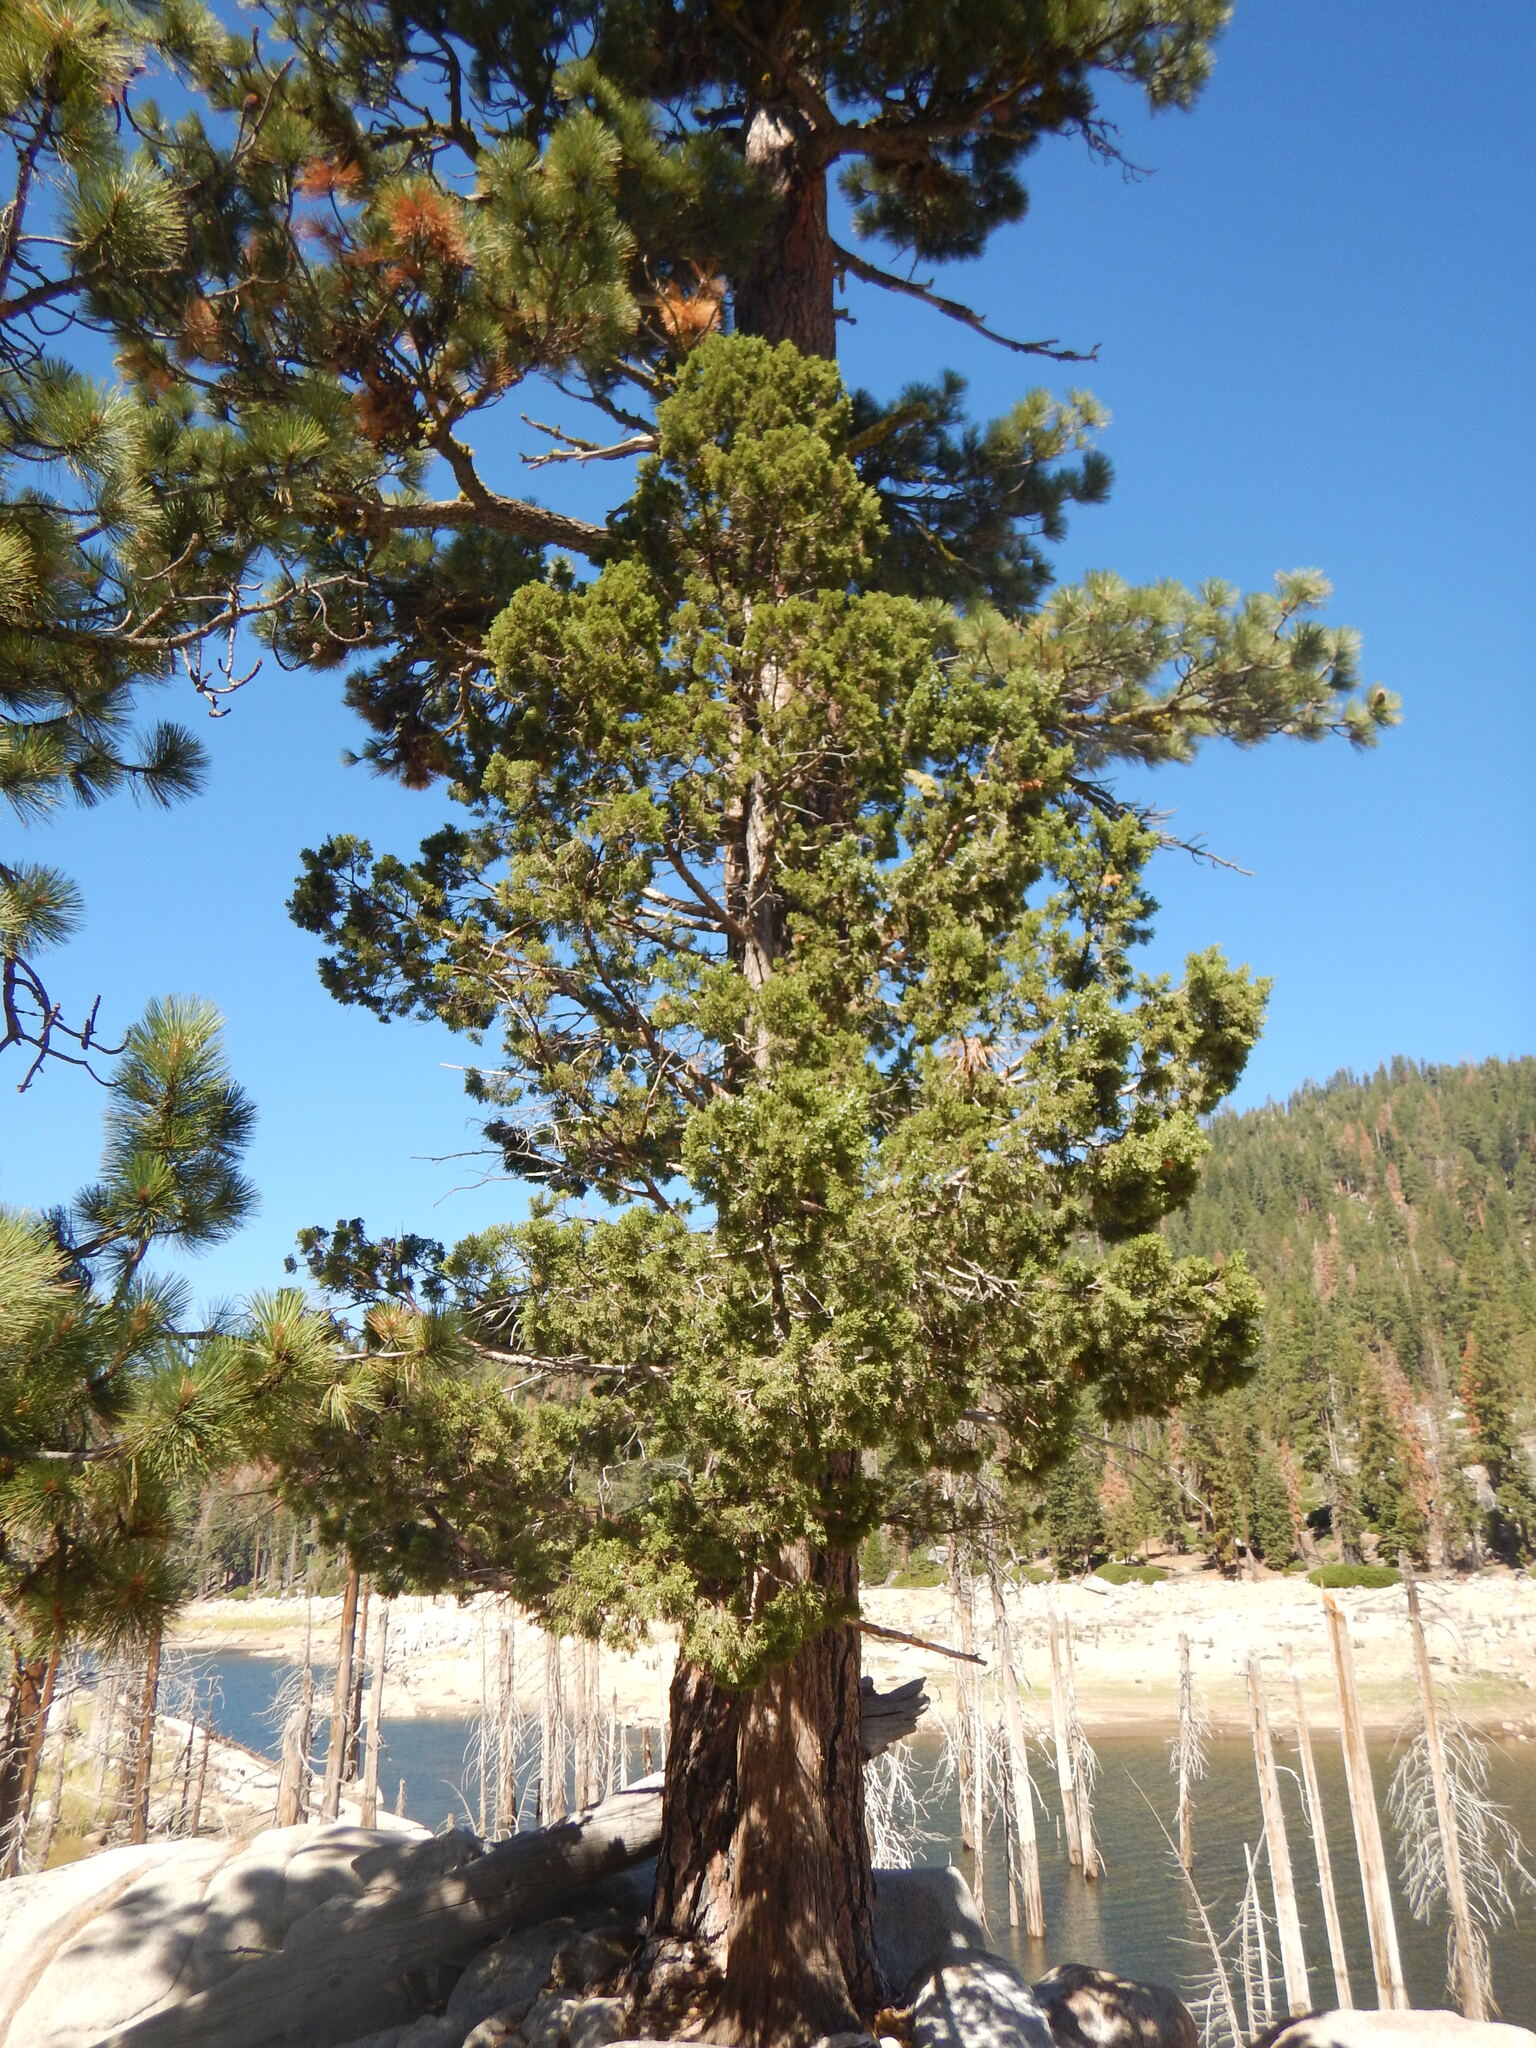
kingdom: Plantae
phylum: Tracheophyta
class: Pinopsida
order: Pinales
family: Cupressaceae
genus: Juniperus
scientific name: Juniperus occidentalis
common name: Western juniper
